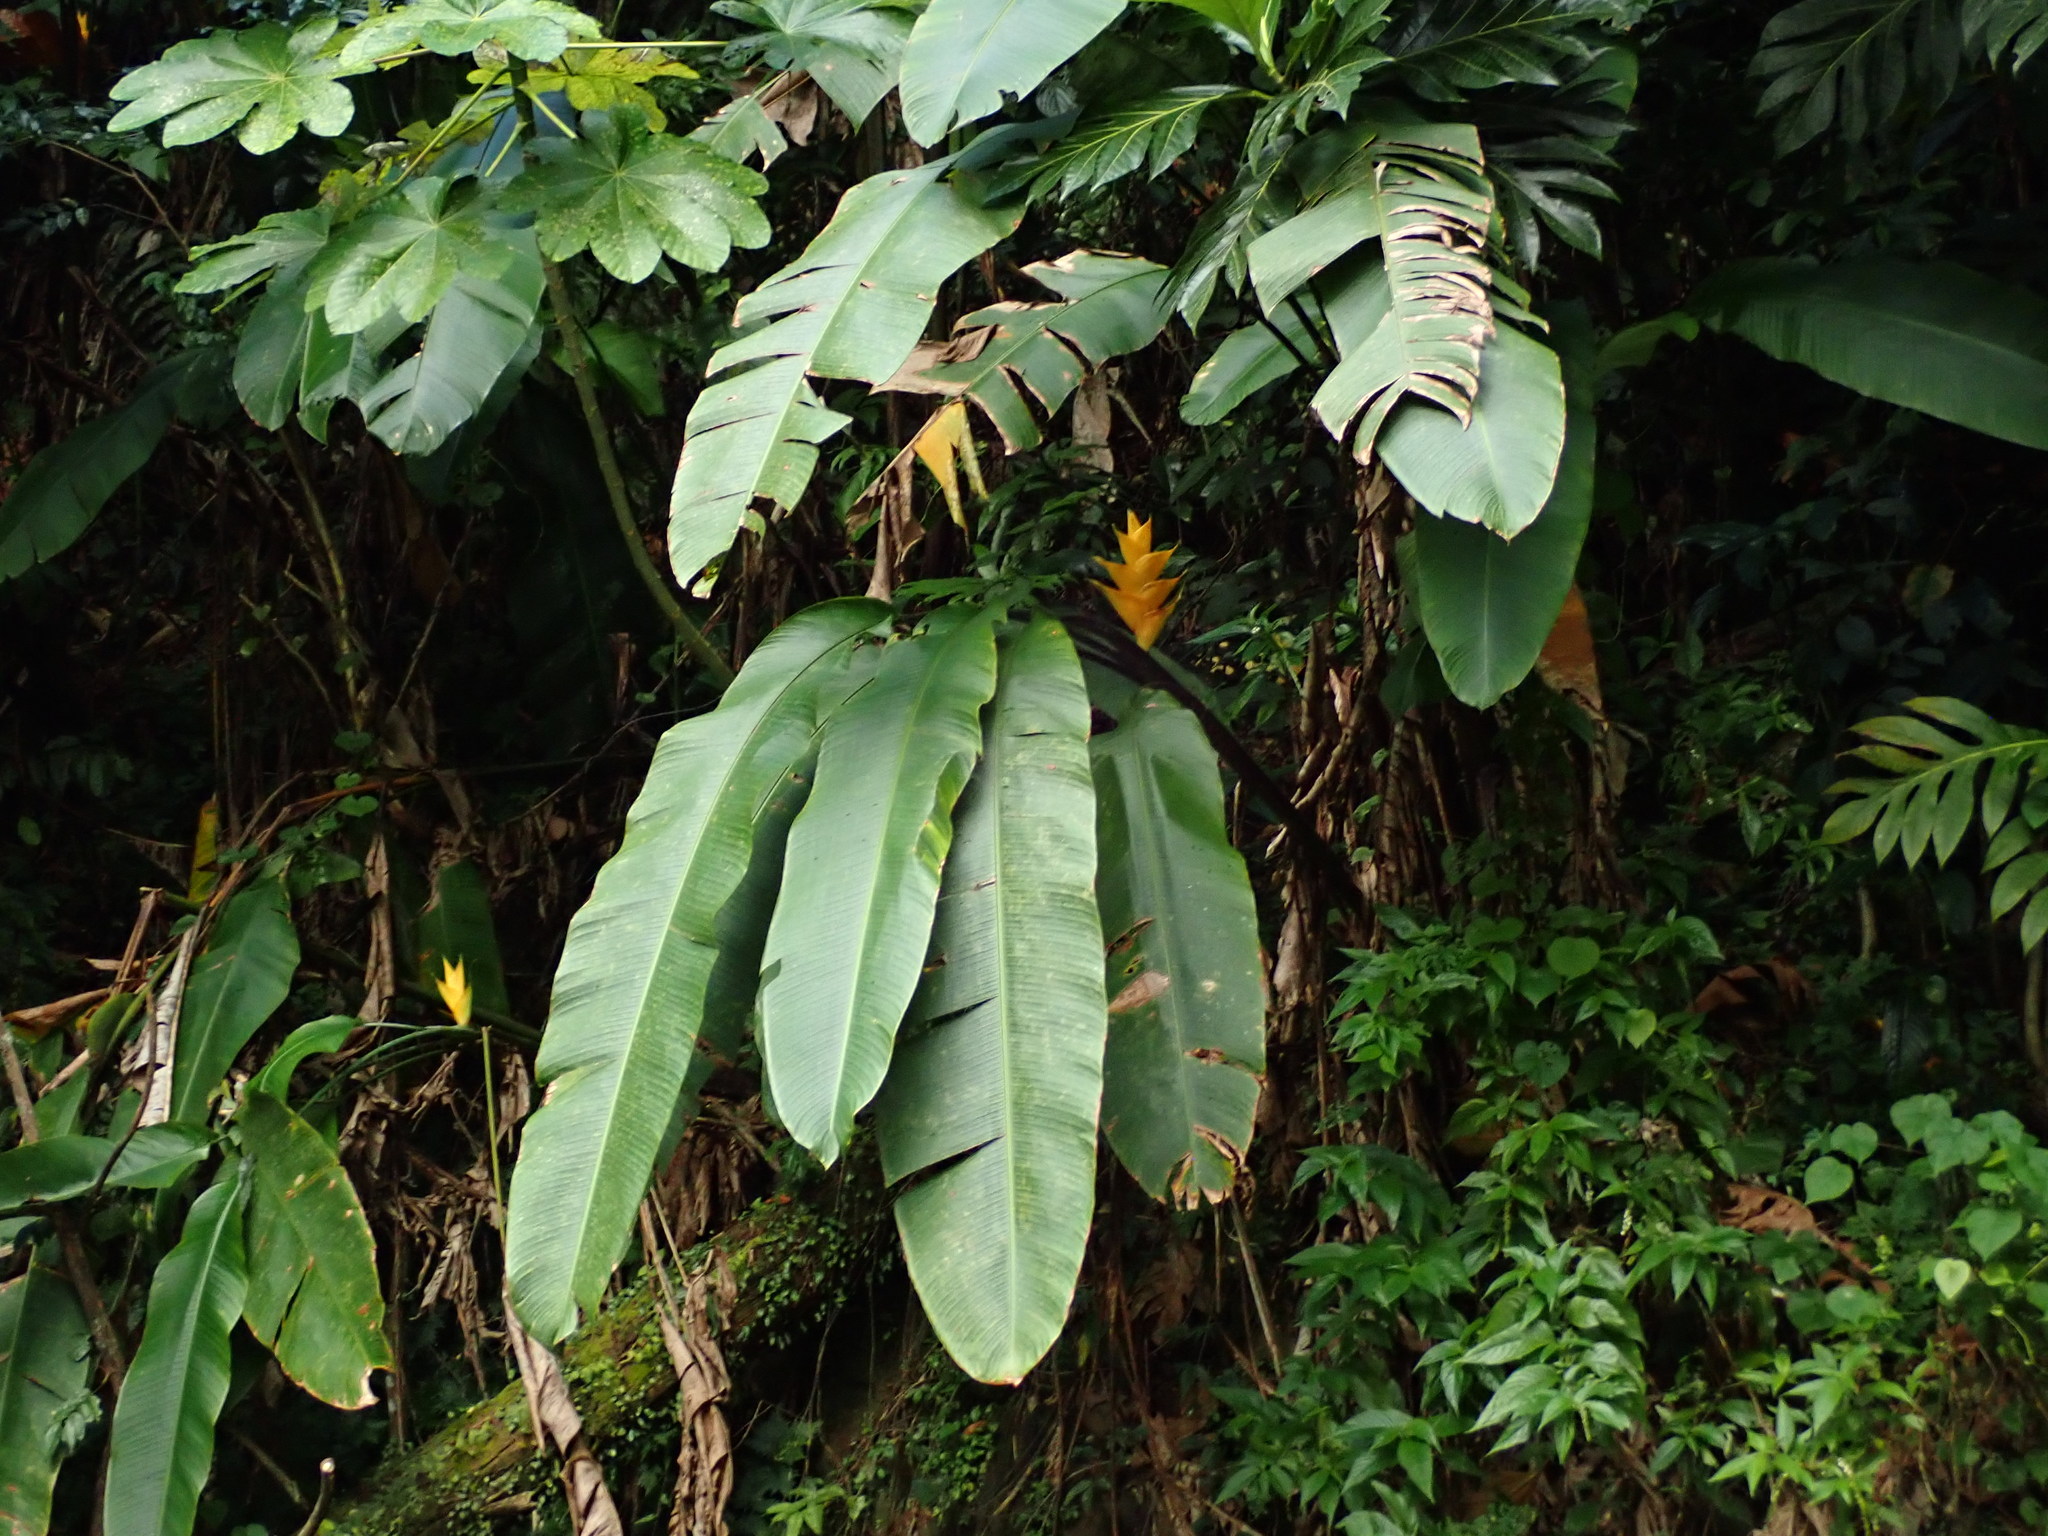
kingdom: Plantae
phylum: Tracheophyta
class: Liliopsida
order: Zingiberales
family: Heliconiaceae
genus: Heliconia
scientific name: Heliconia caribaea
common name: Wild plantain
